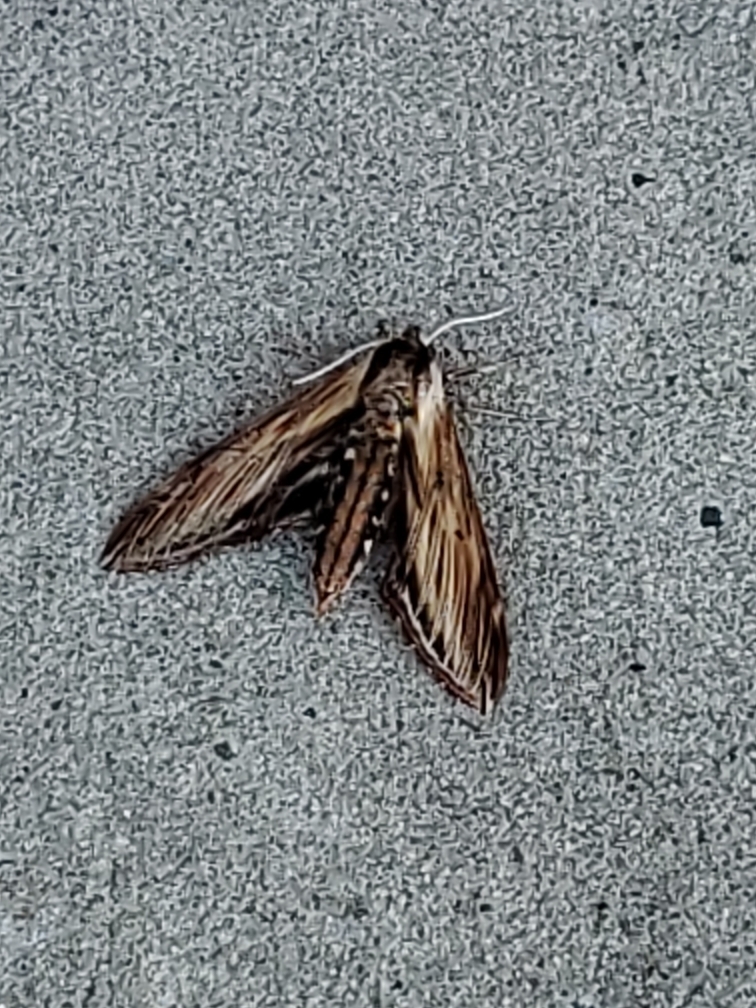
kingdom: Animalia
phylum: Arthropoda
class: Insecta
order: Lepidoptera
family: Sphingidae
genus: Sphinx
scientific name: Sphinx kalmiae
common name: Laurel sphinx
